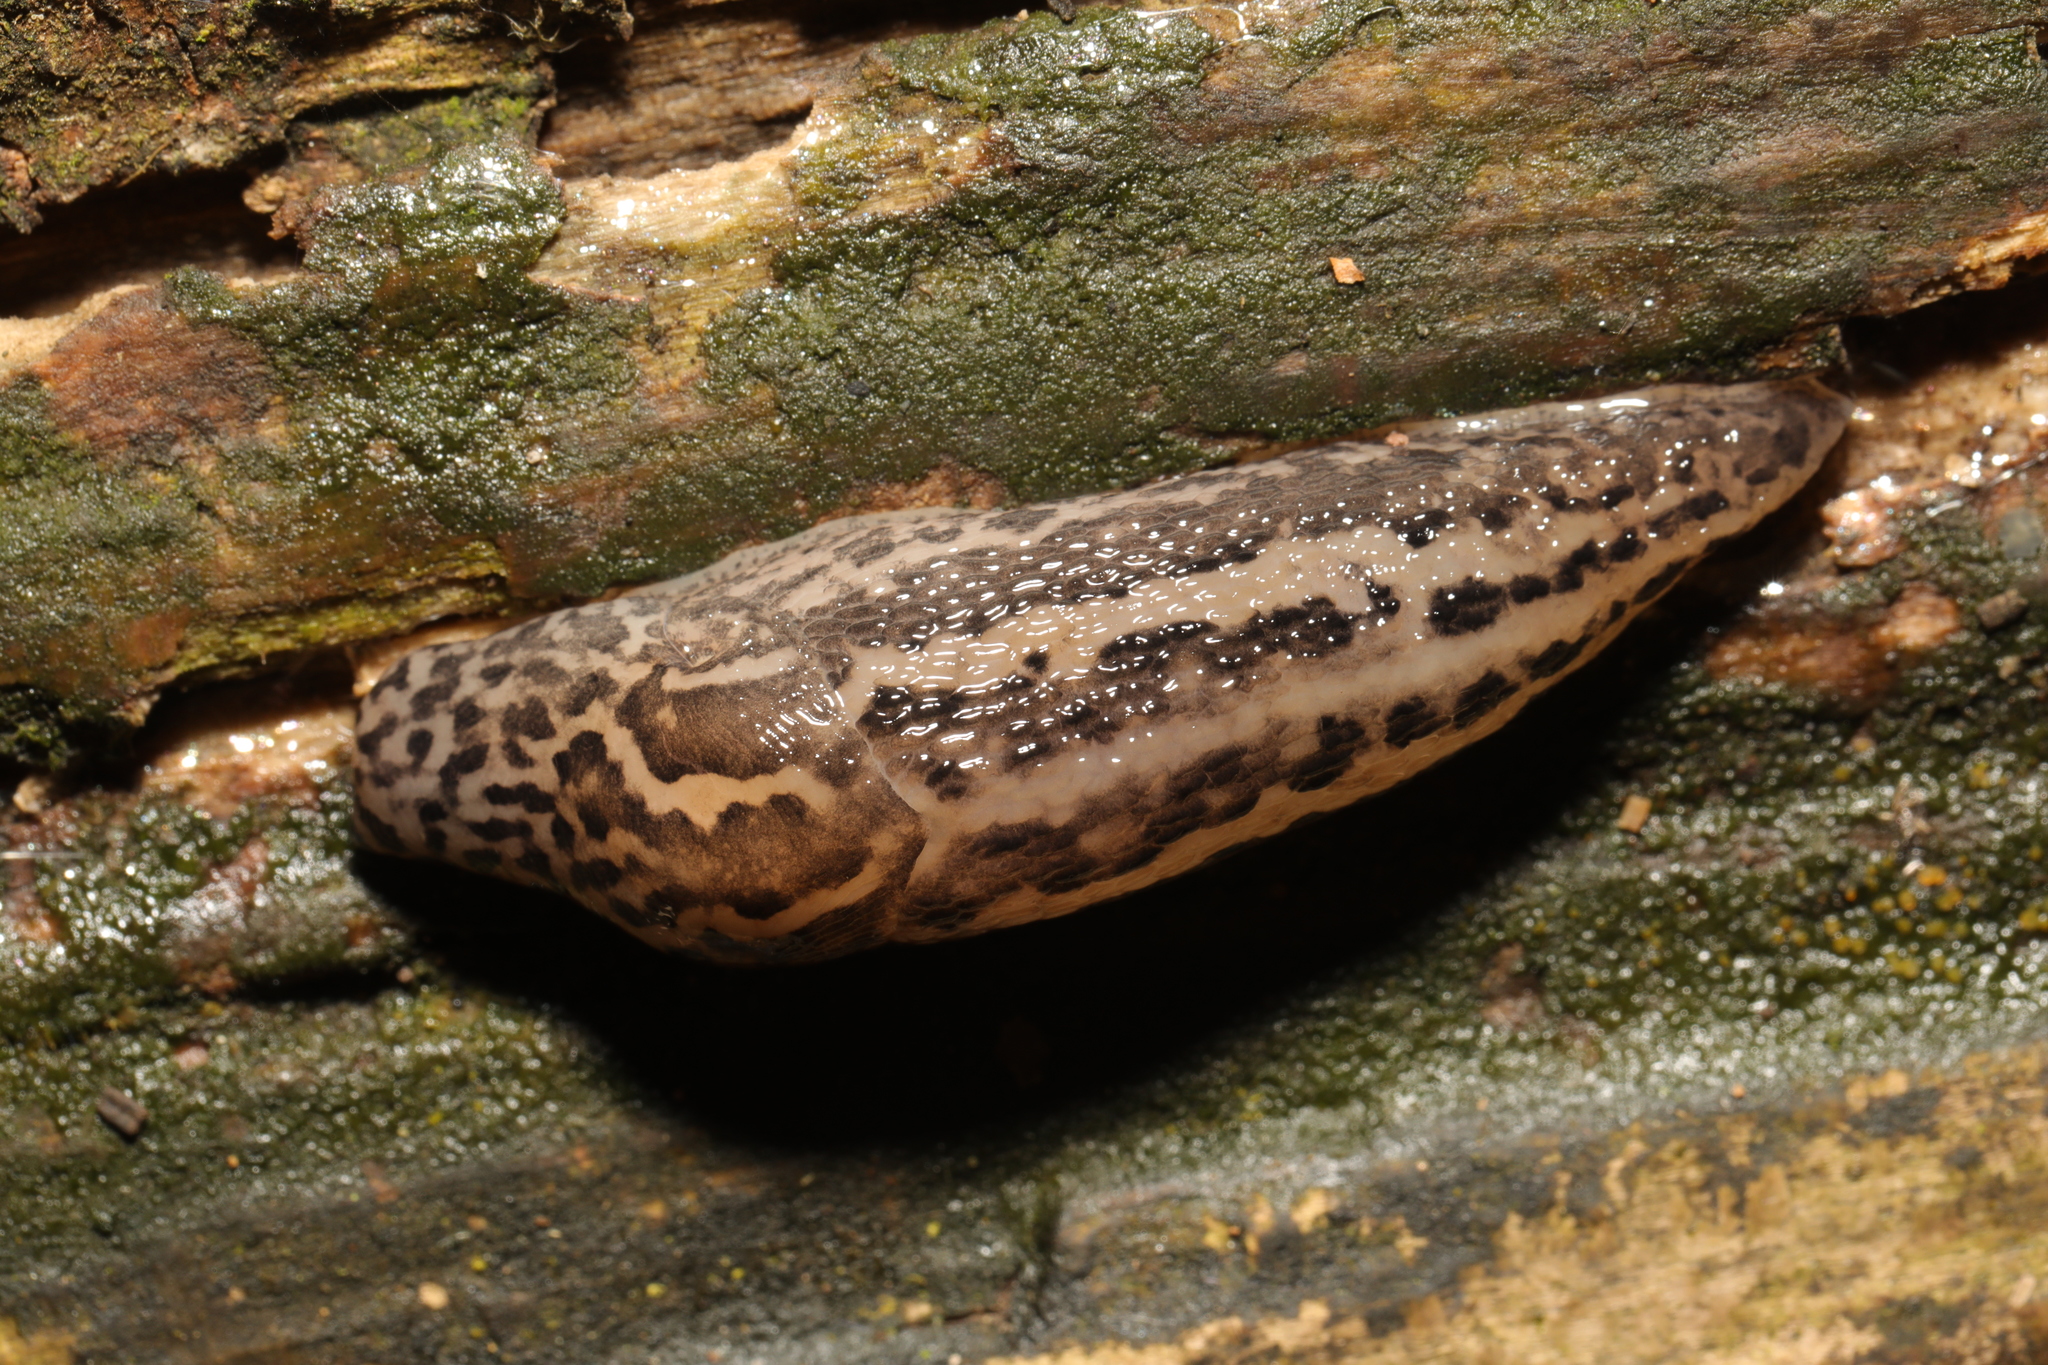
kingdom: Animalia
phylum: Mollusca
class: Gastropoda
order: Stylommatophora
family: Limacidae
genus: Limax
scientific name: Limax maximus
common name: Great grey slug
